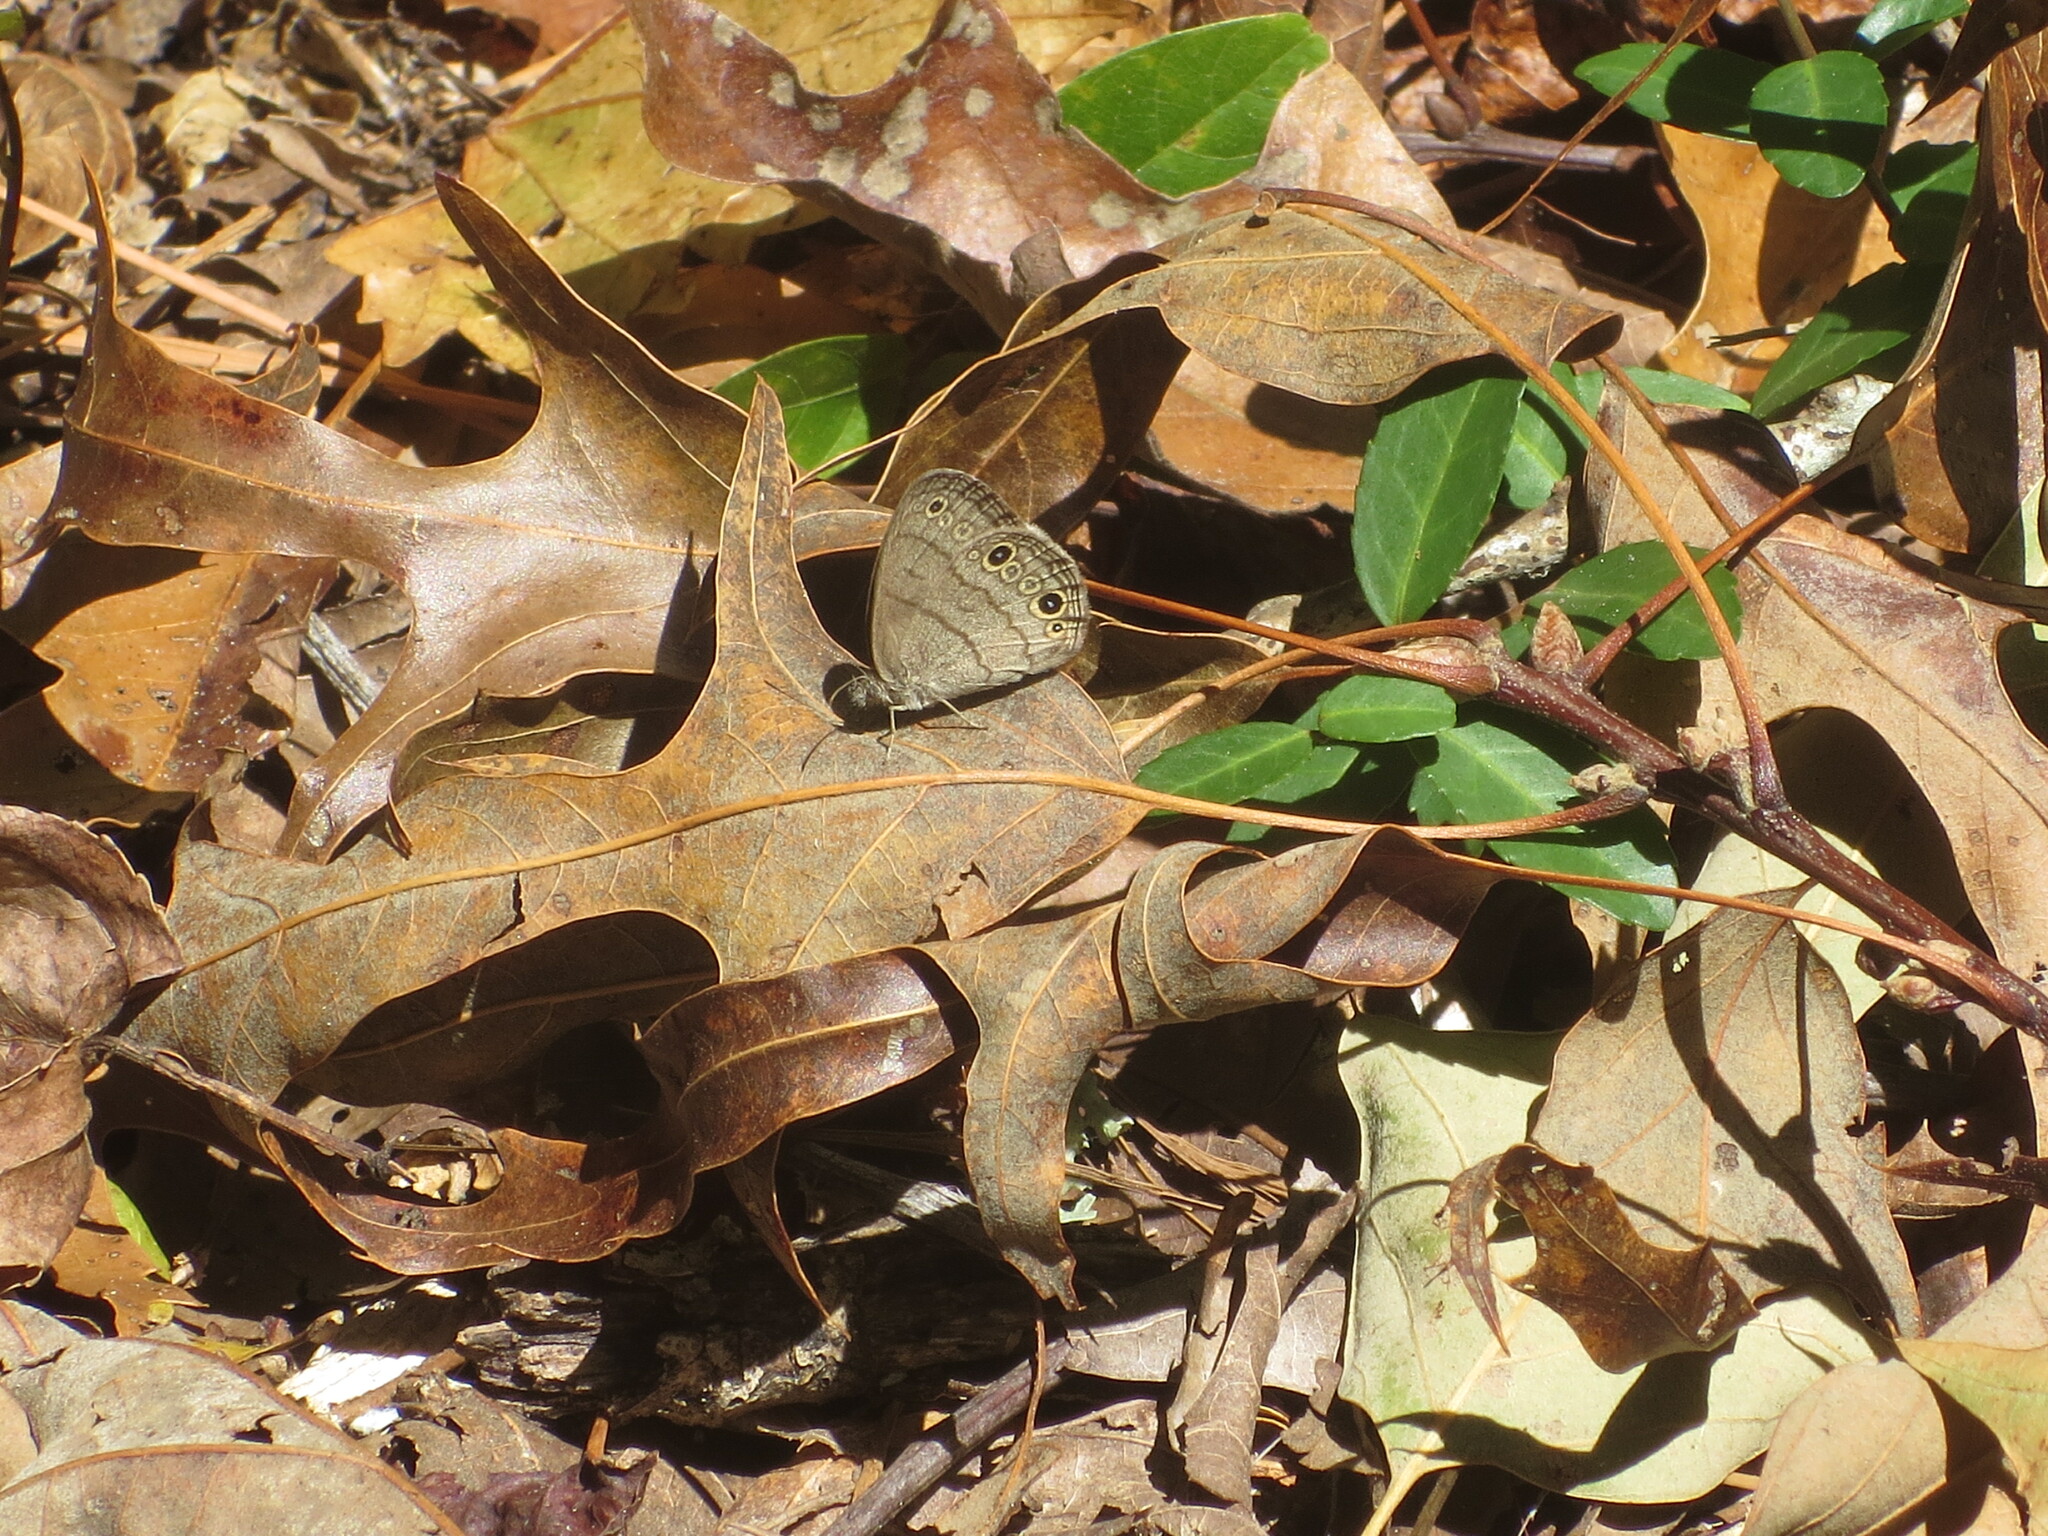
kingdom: Animalia
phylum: Arthropoda
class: Insecta
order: Lepidoptera
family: Nymphalidae
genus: Hermeuptychia
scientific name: Hermeuptychia hermes
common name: Hermes satyr
